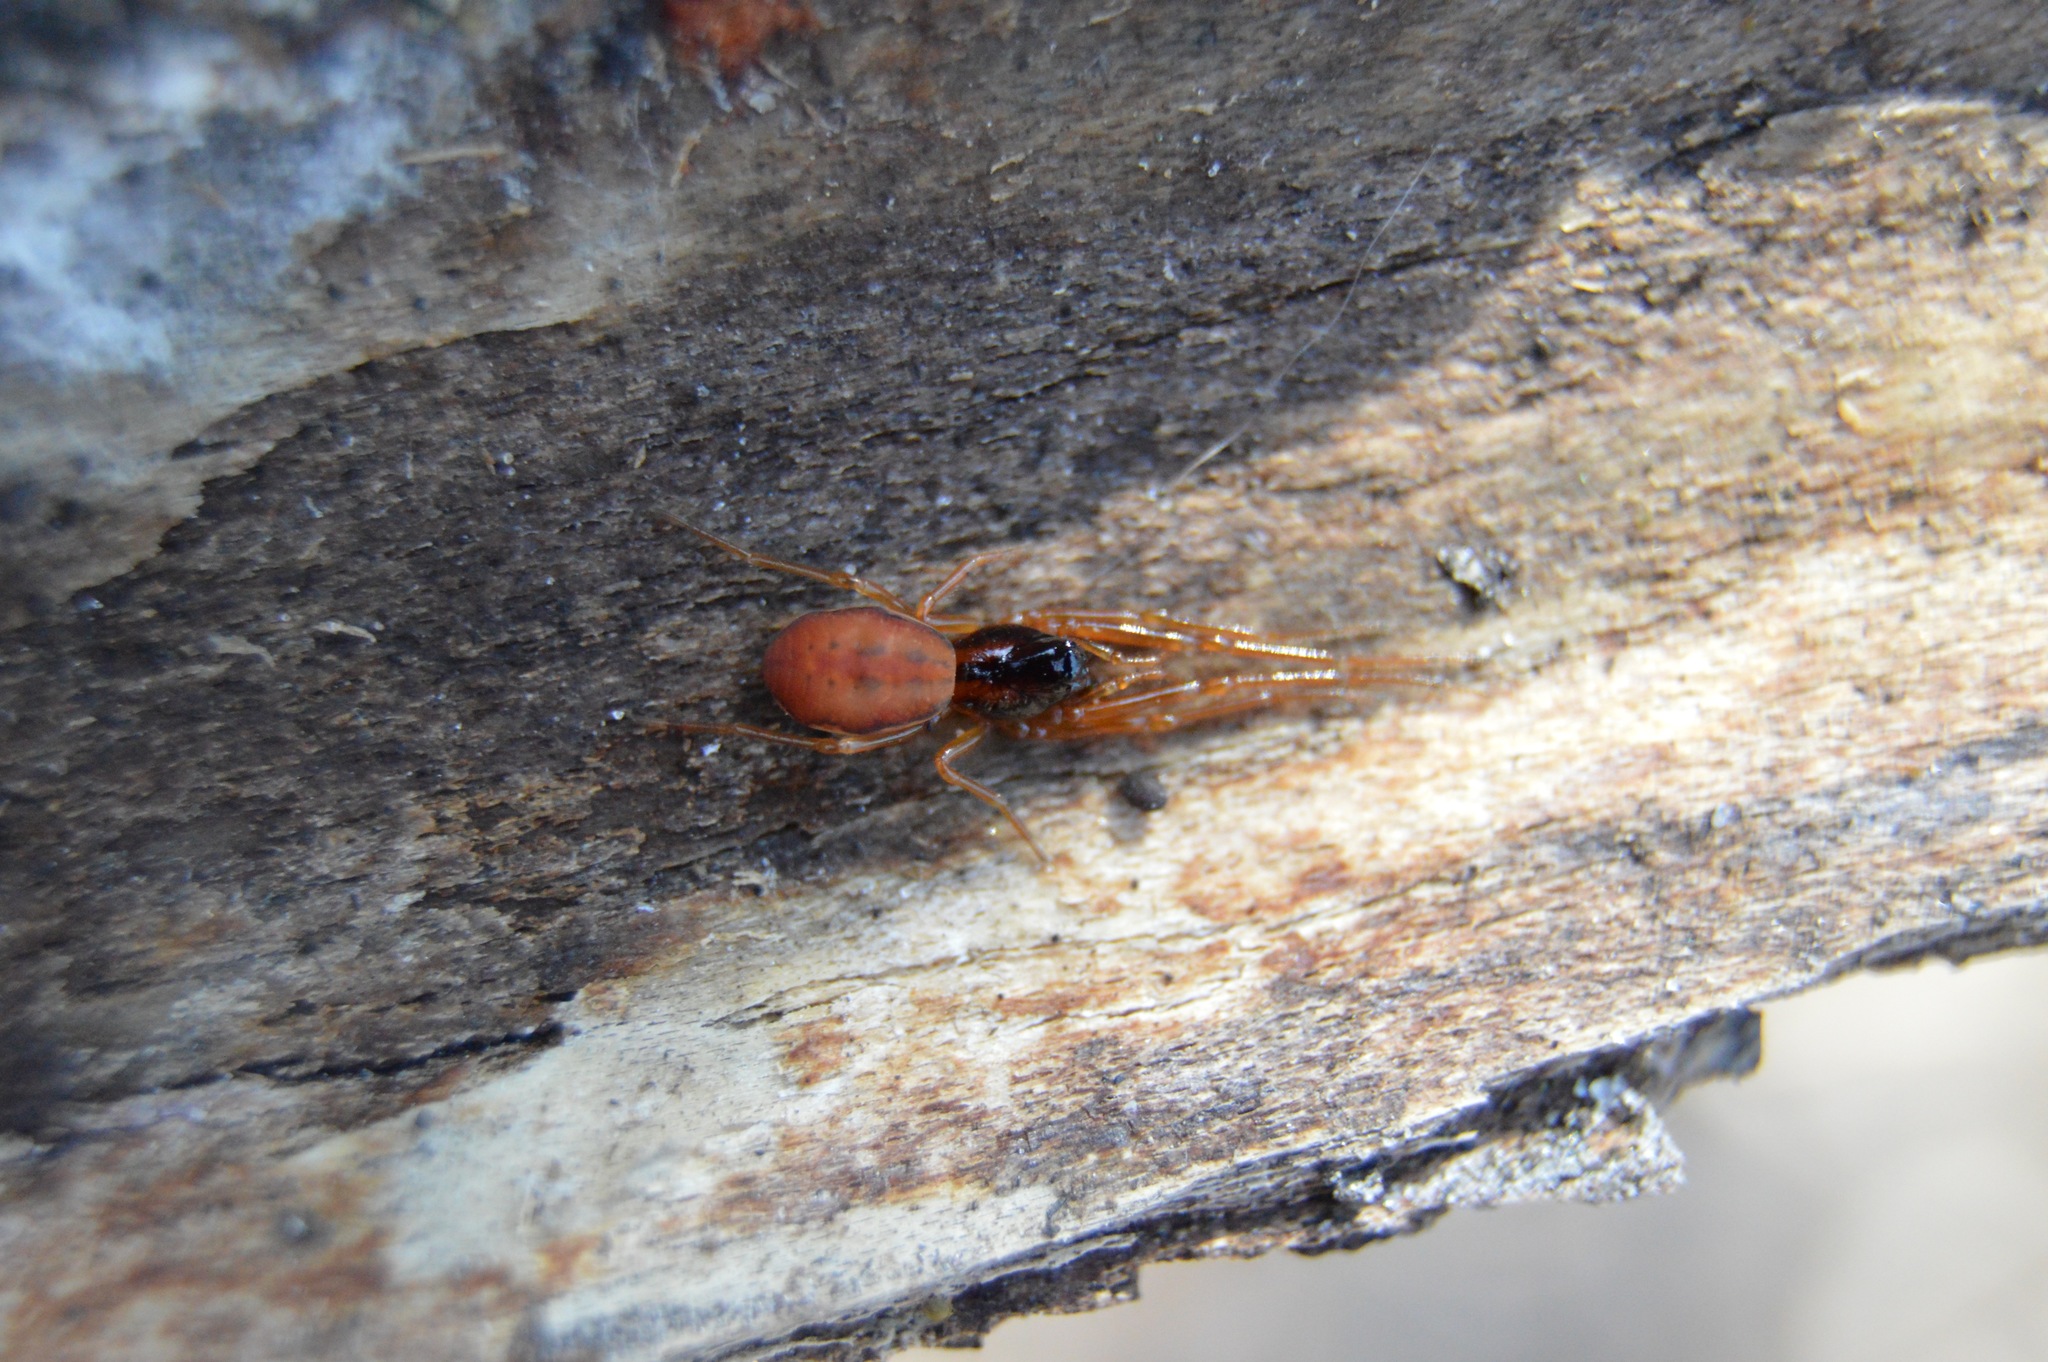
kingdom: Animalia
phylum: Arthropoda
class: Arachnida
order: Araneae
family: Tetragnathidae
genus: Pachygnatha
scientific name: Pachygnatha autumnalis
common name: Big-eyed thick-jawed spider
